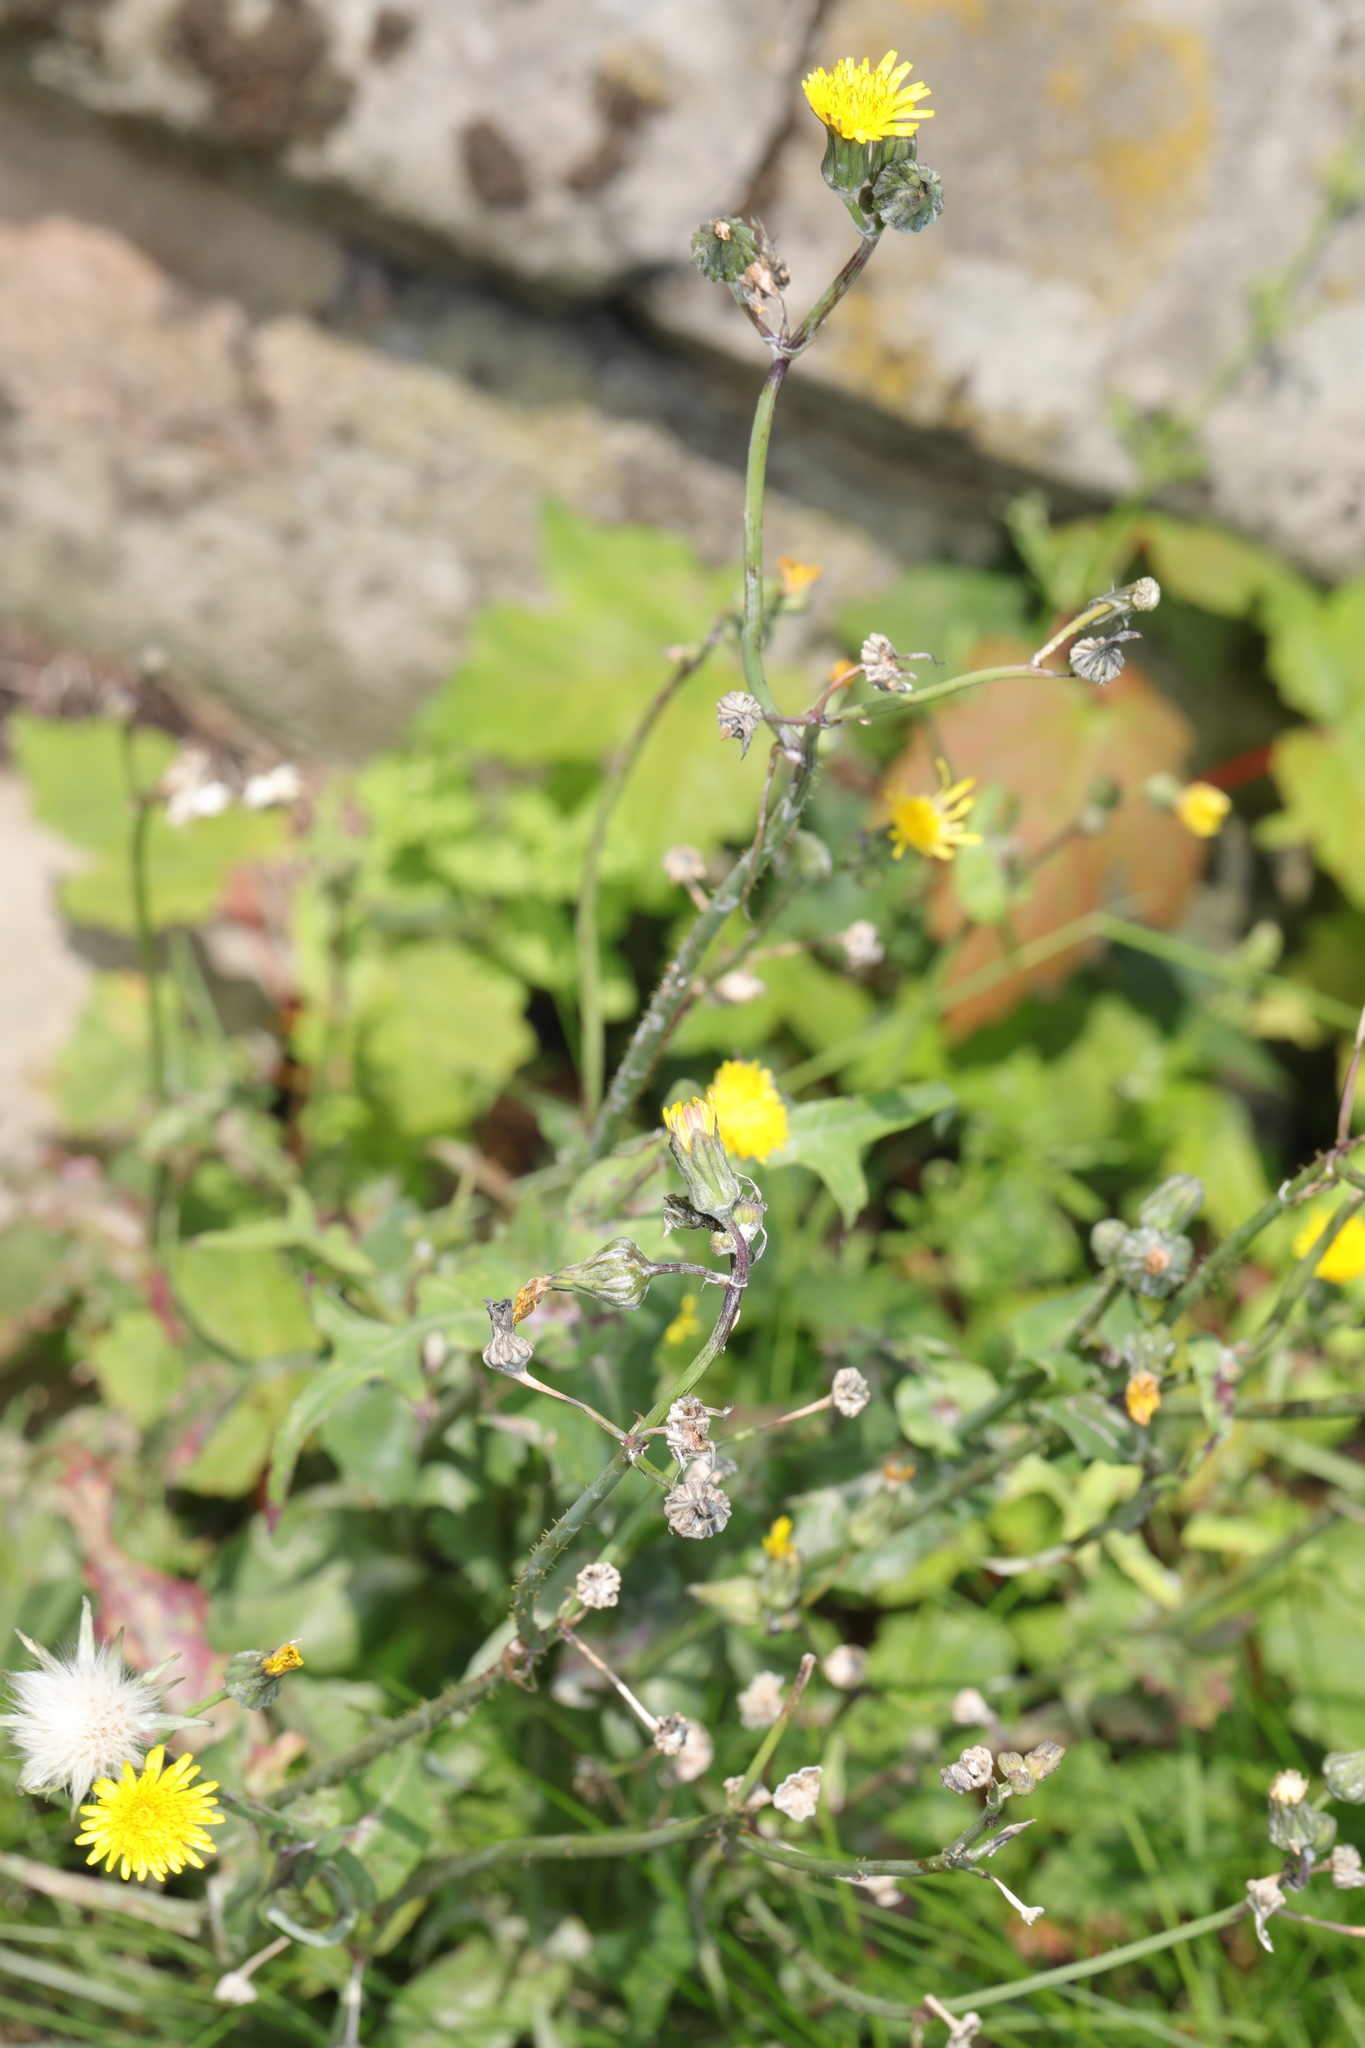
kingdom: Plantae
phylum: Tracheophyta
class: Magnoliopsida
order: Asterales
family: Asteraceae
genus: Sonchus
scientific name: Sonchus oleraceus
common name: Common sowthistle
